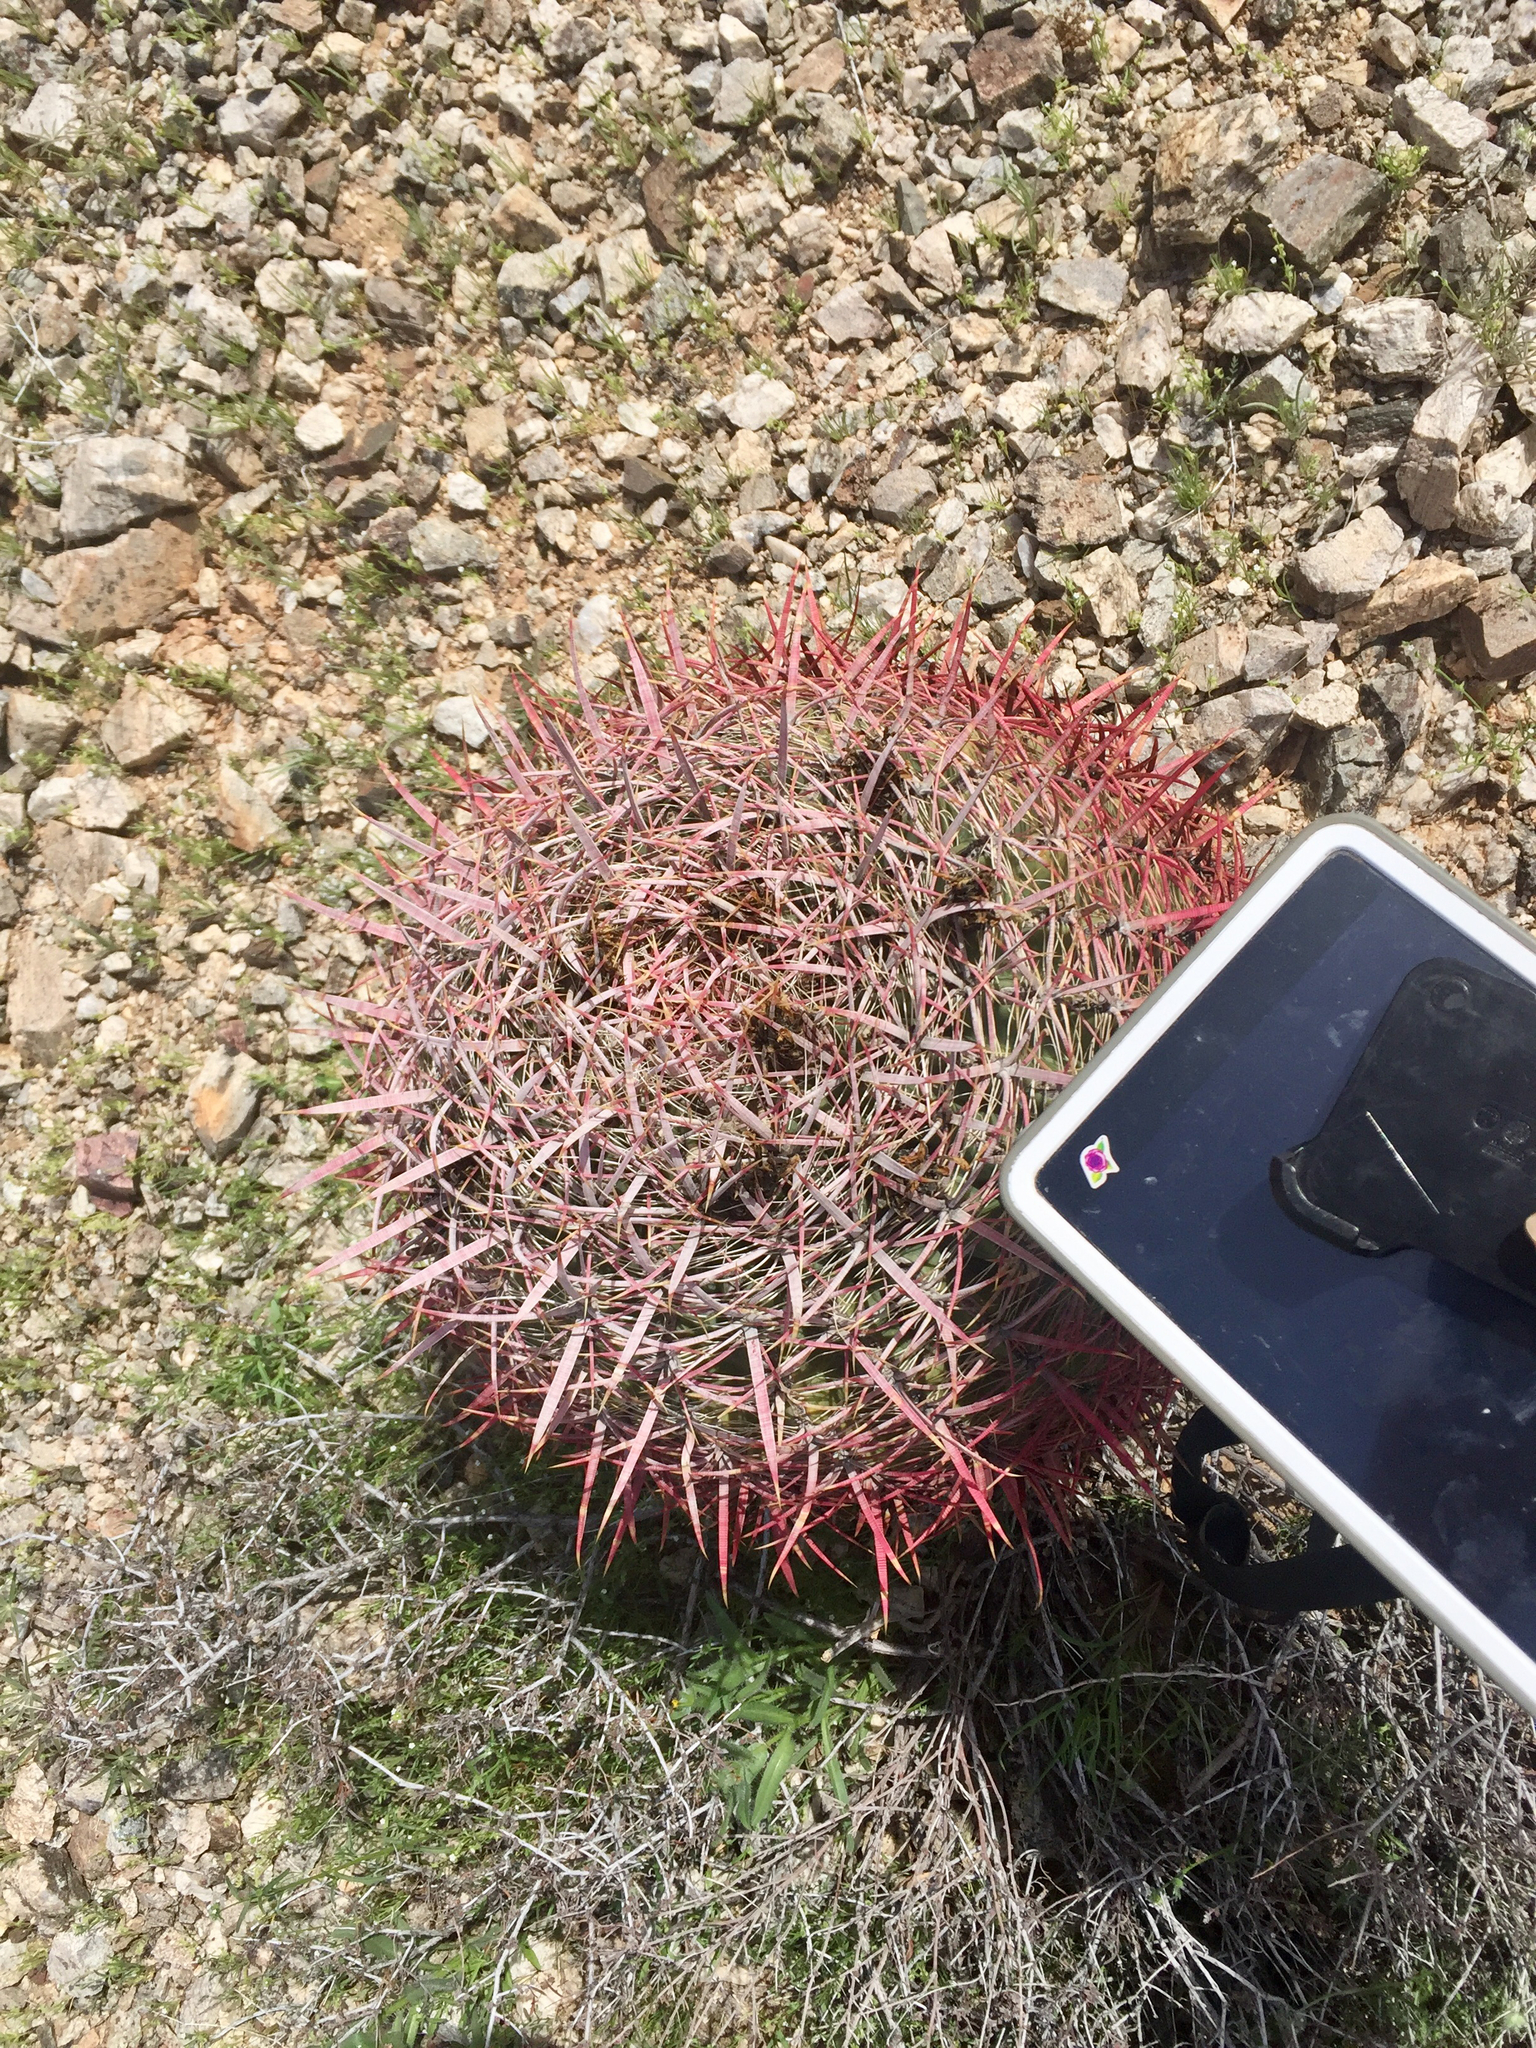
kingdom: Plantae
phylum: Tracheophyta
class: Magnoliopsida
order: Caryophyllales
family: Cactaceae
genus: Ferocactus
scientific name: Ferocactus cylindraceus
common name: California barrel cactus
